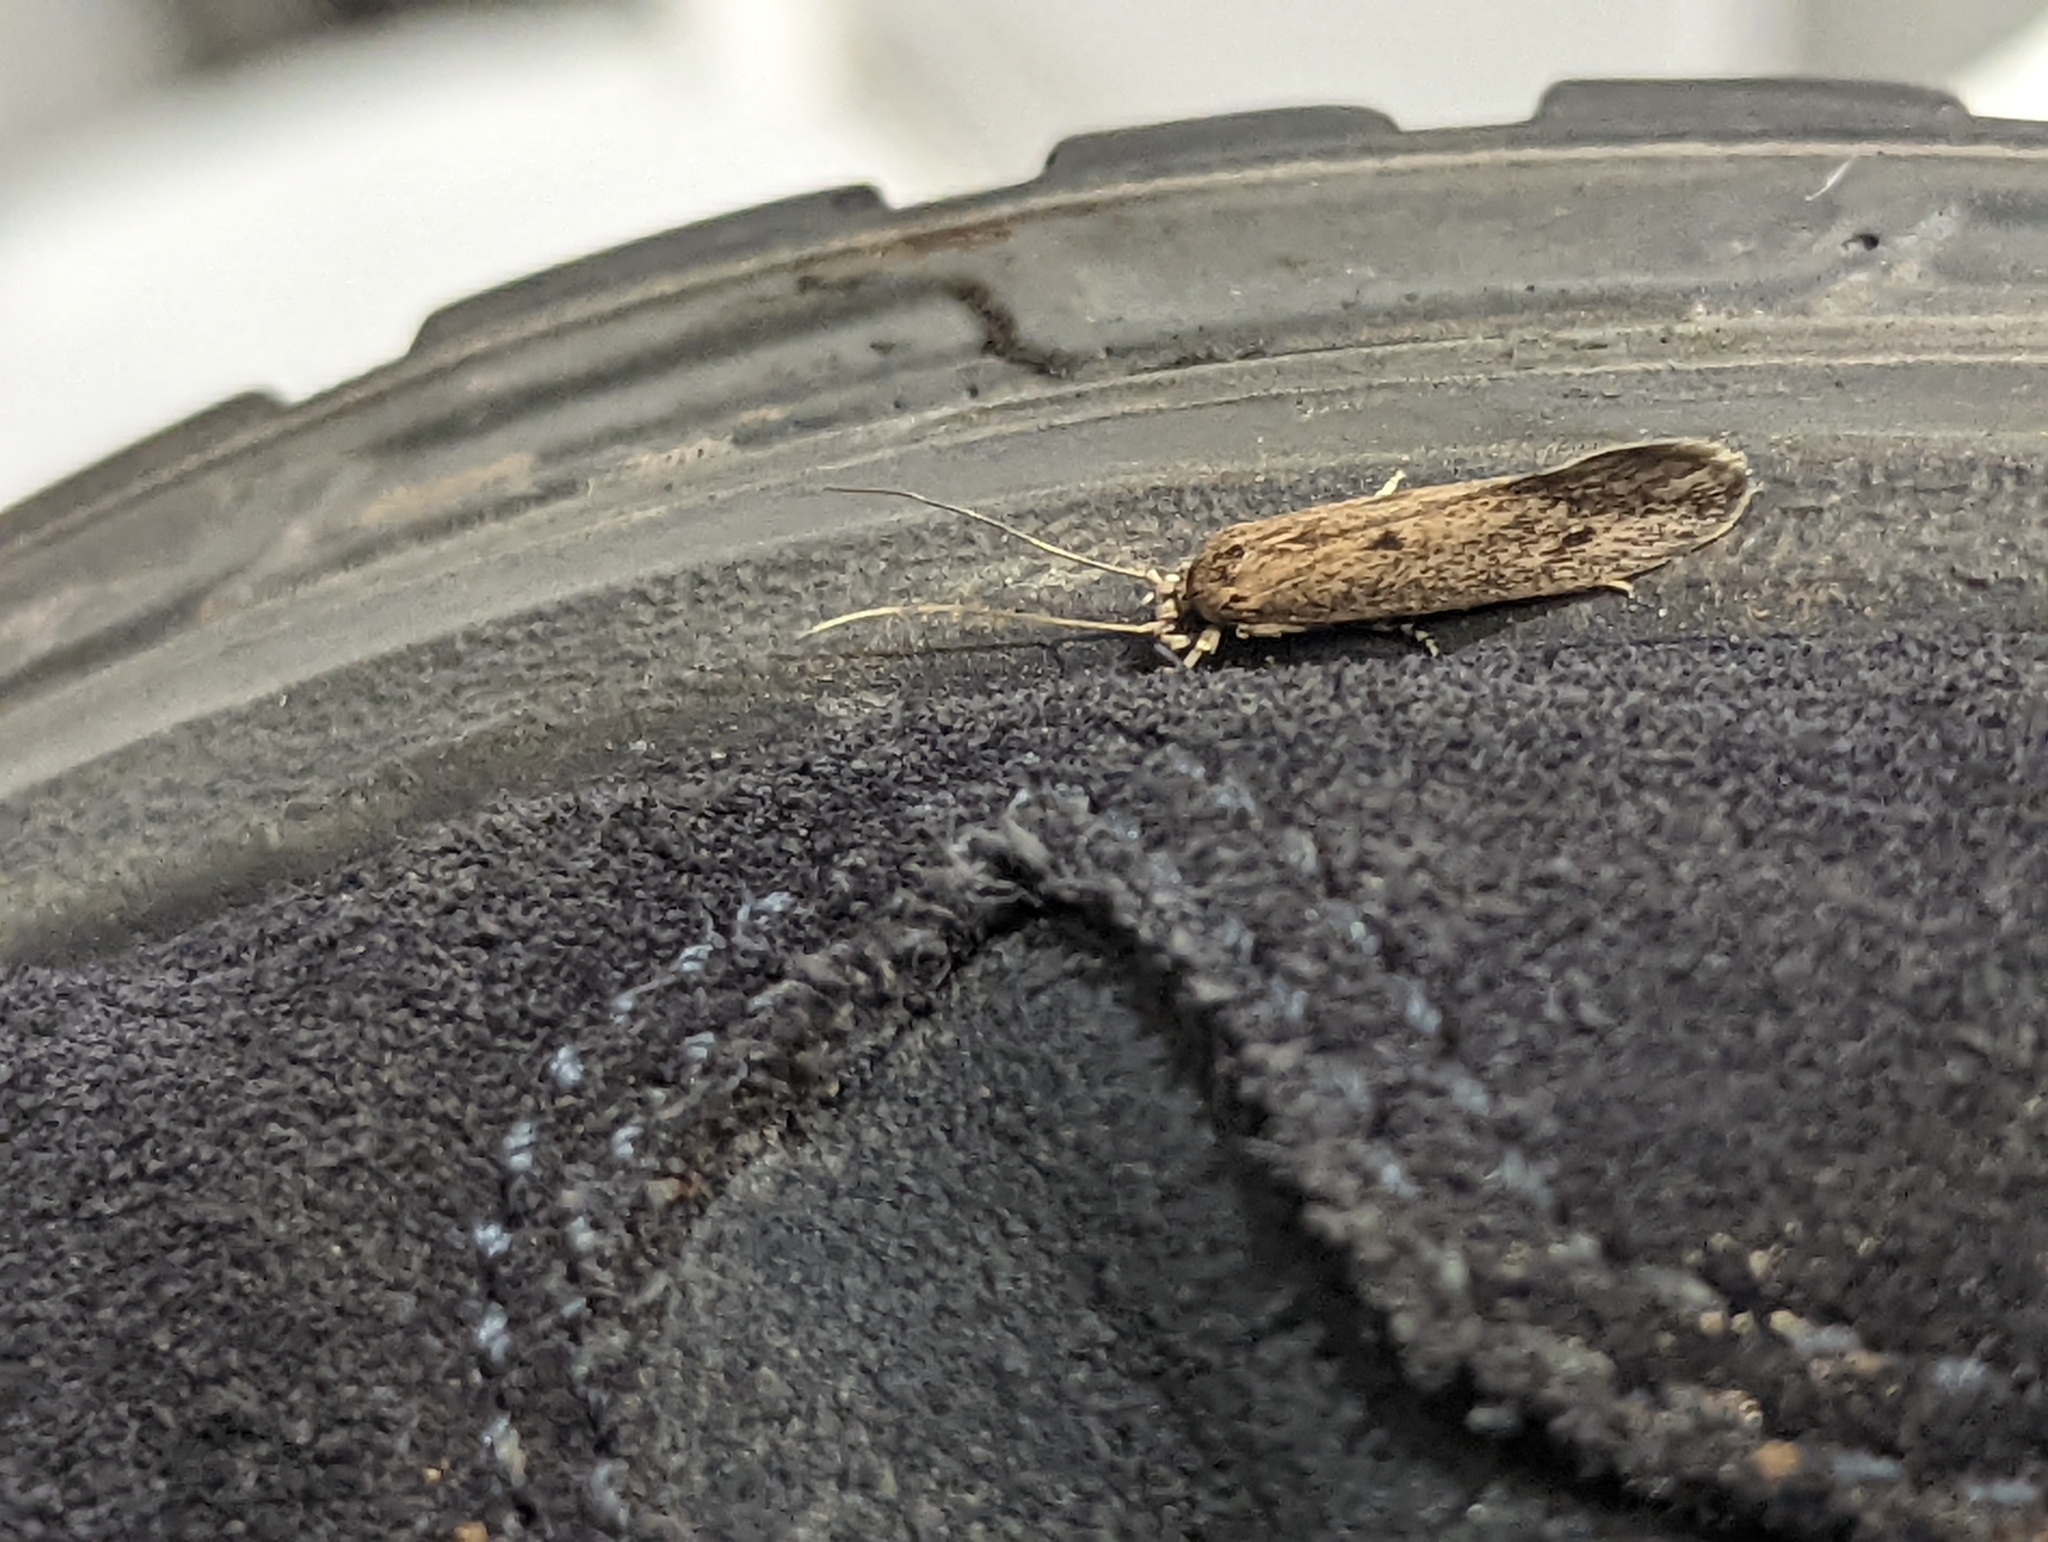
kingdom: Animalia
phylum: Arthropoda
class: Insecta
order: Lepidoptera
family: Tineidae
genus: Opogona
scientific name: Opogona sacchari
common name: Banana bud moth
